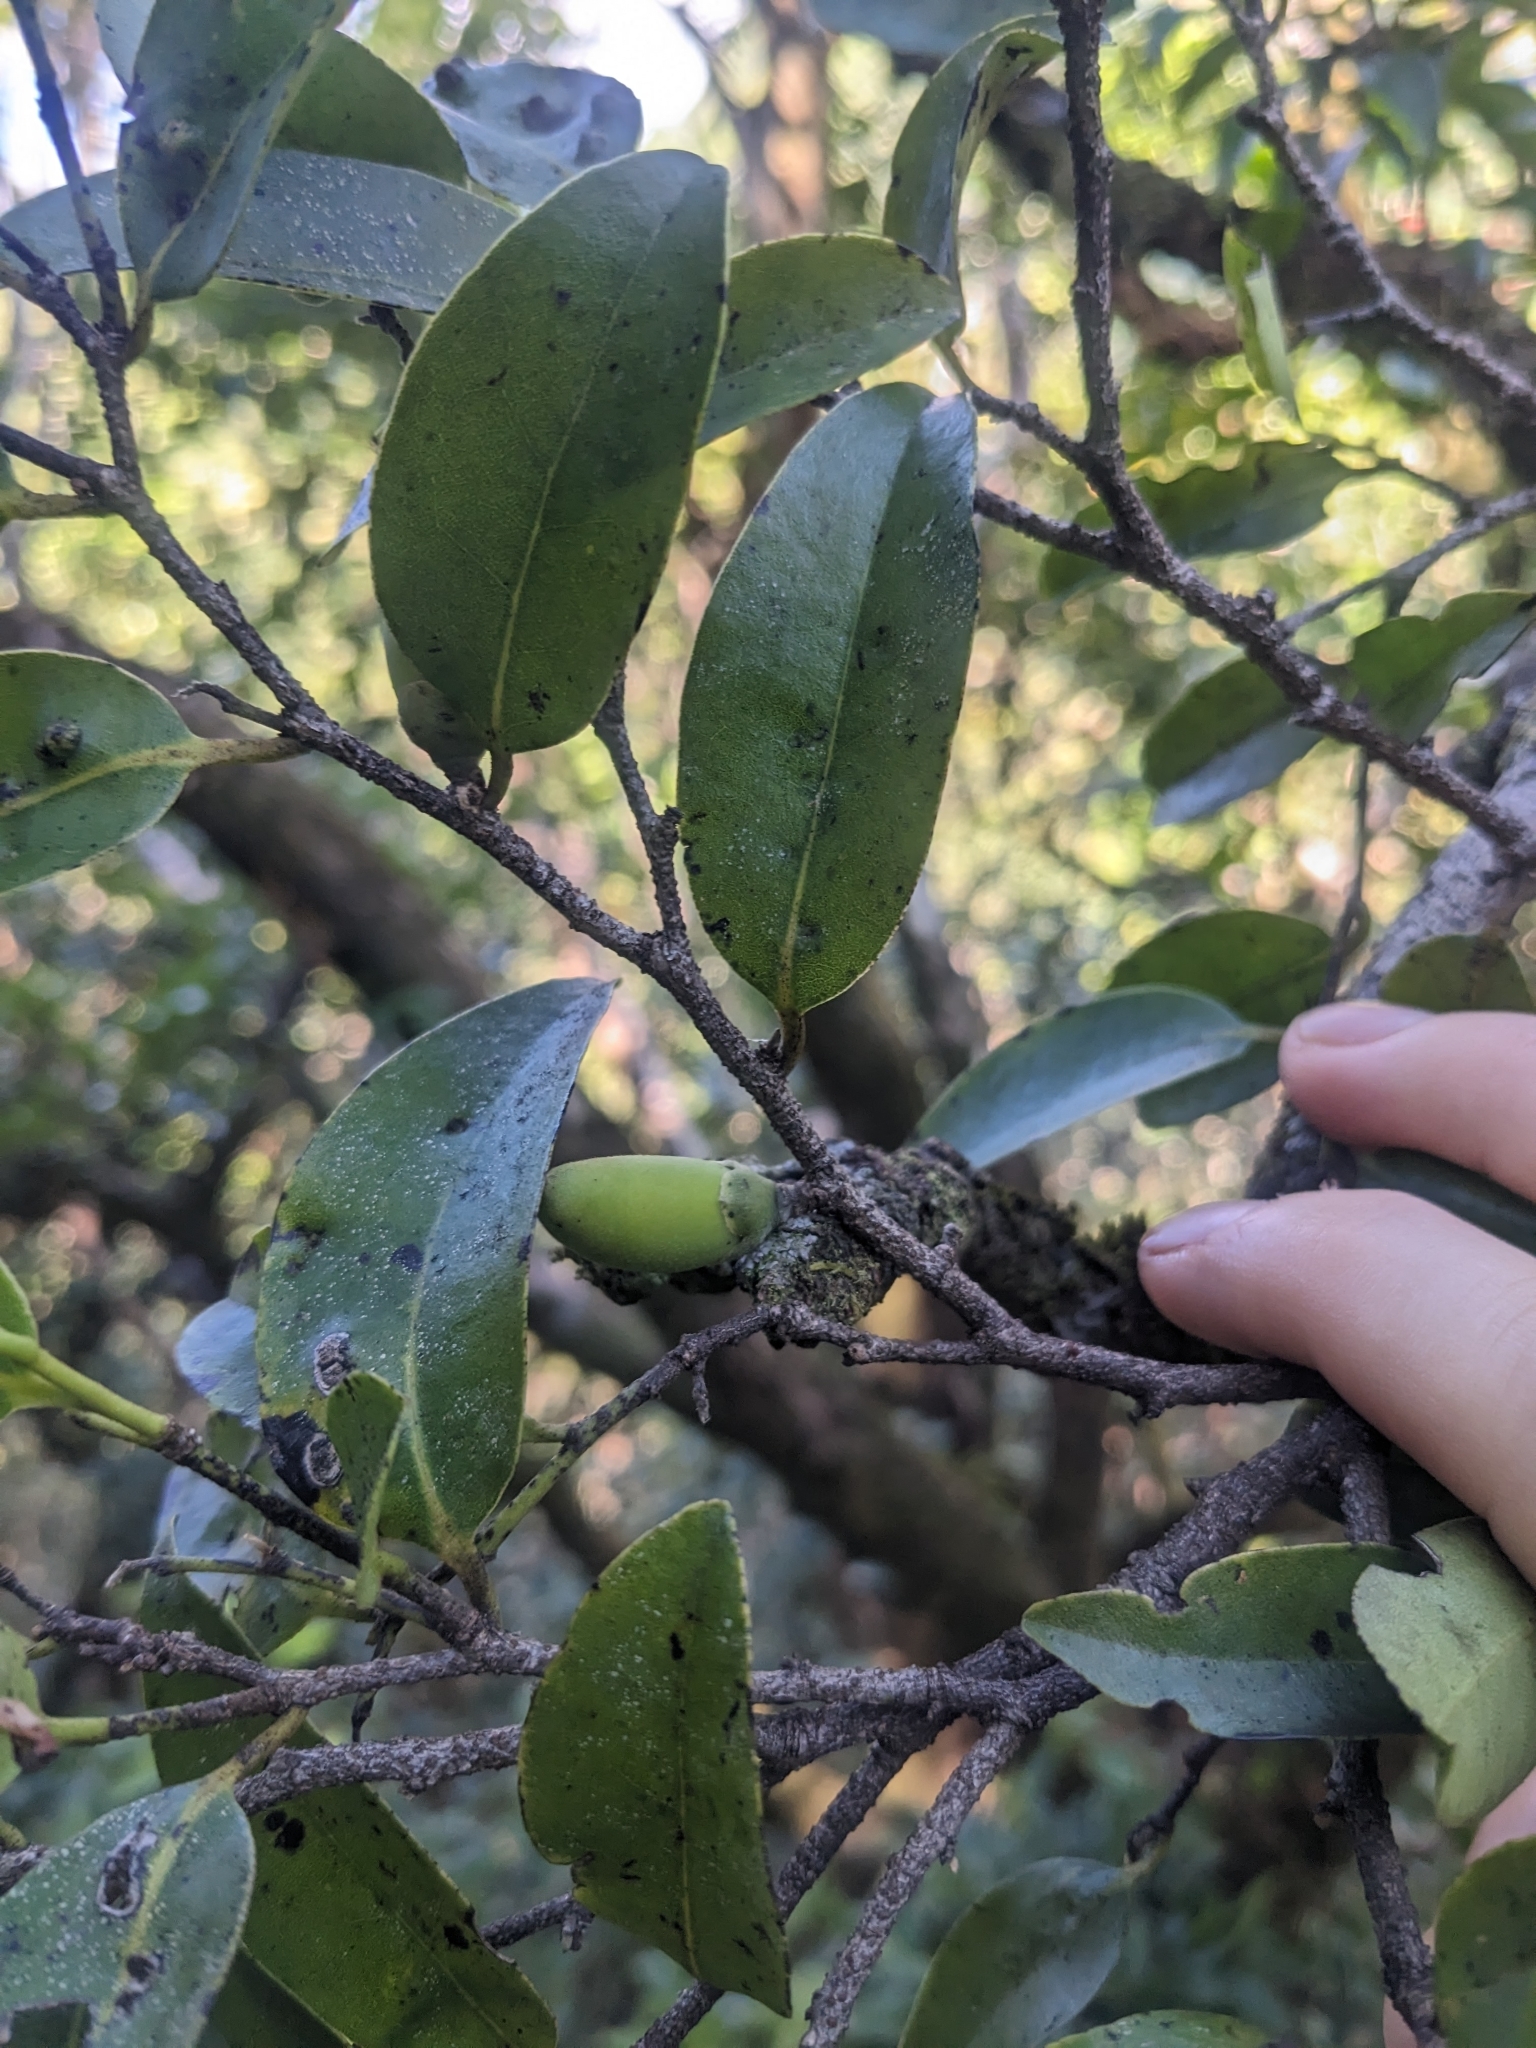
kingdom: Plantae
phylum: Tracheophyta
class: Magnoliopsida
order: Ericales
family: Ebenaceae
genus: Diospyros
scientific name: Diospyros sandwicensis
